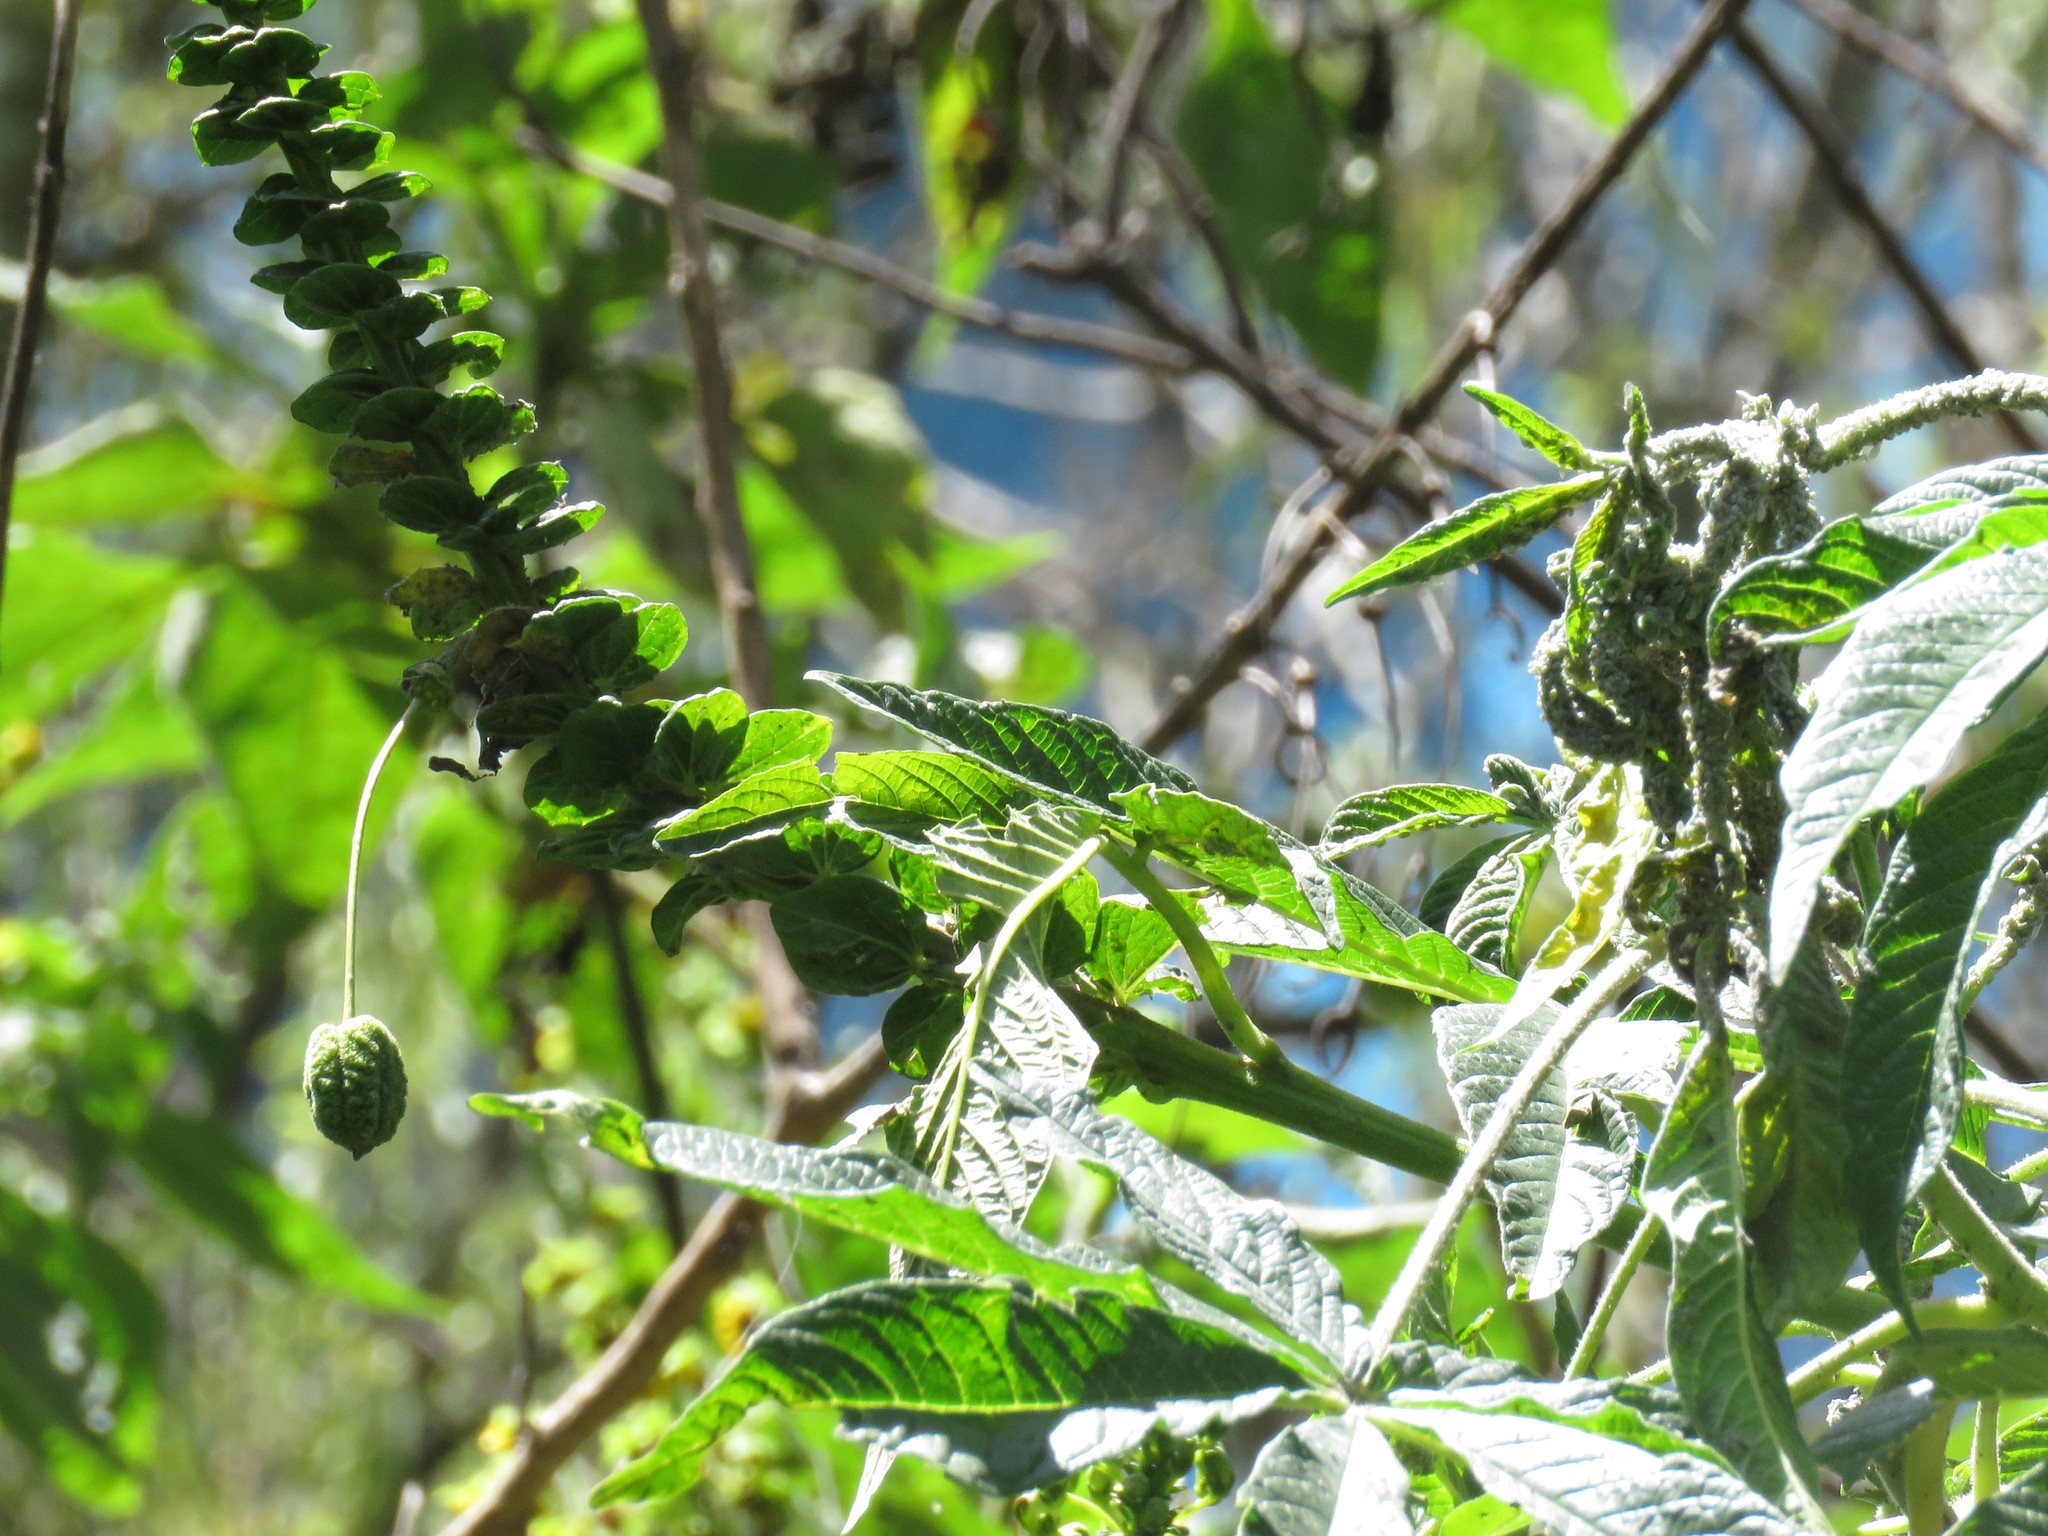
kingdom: Plantae
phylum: Tracheophyta
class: Magnoliopsida
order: Brassicales
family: Cleomaceae
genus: Andinocleome
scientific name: Andinocleome anomala
